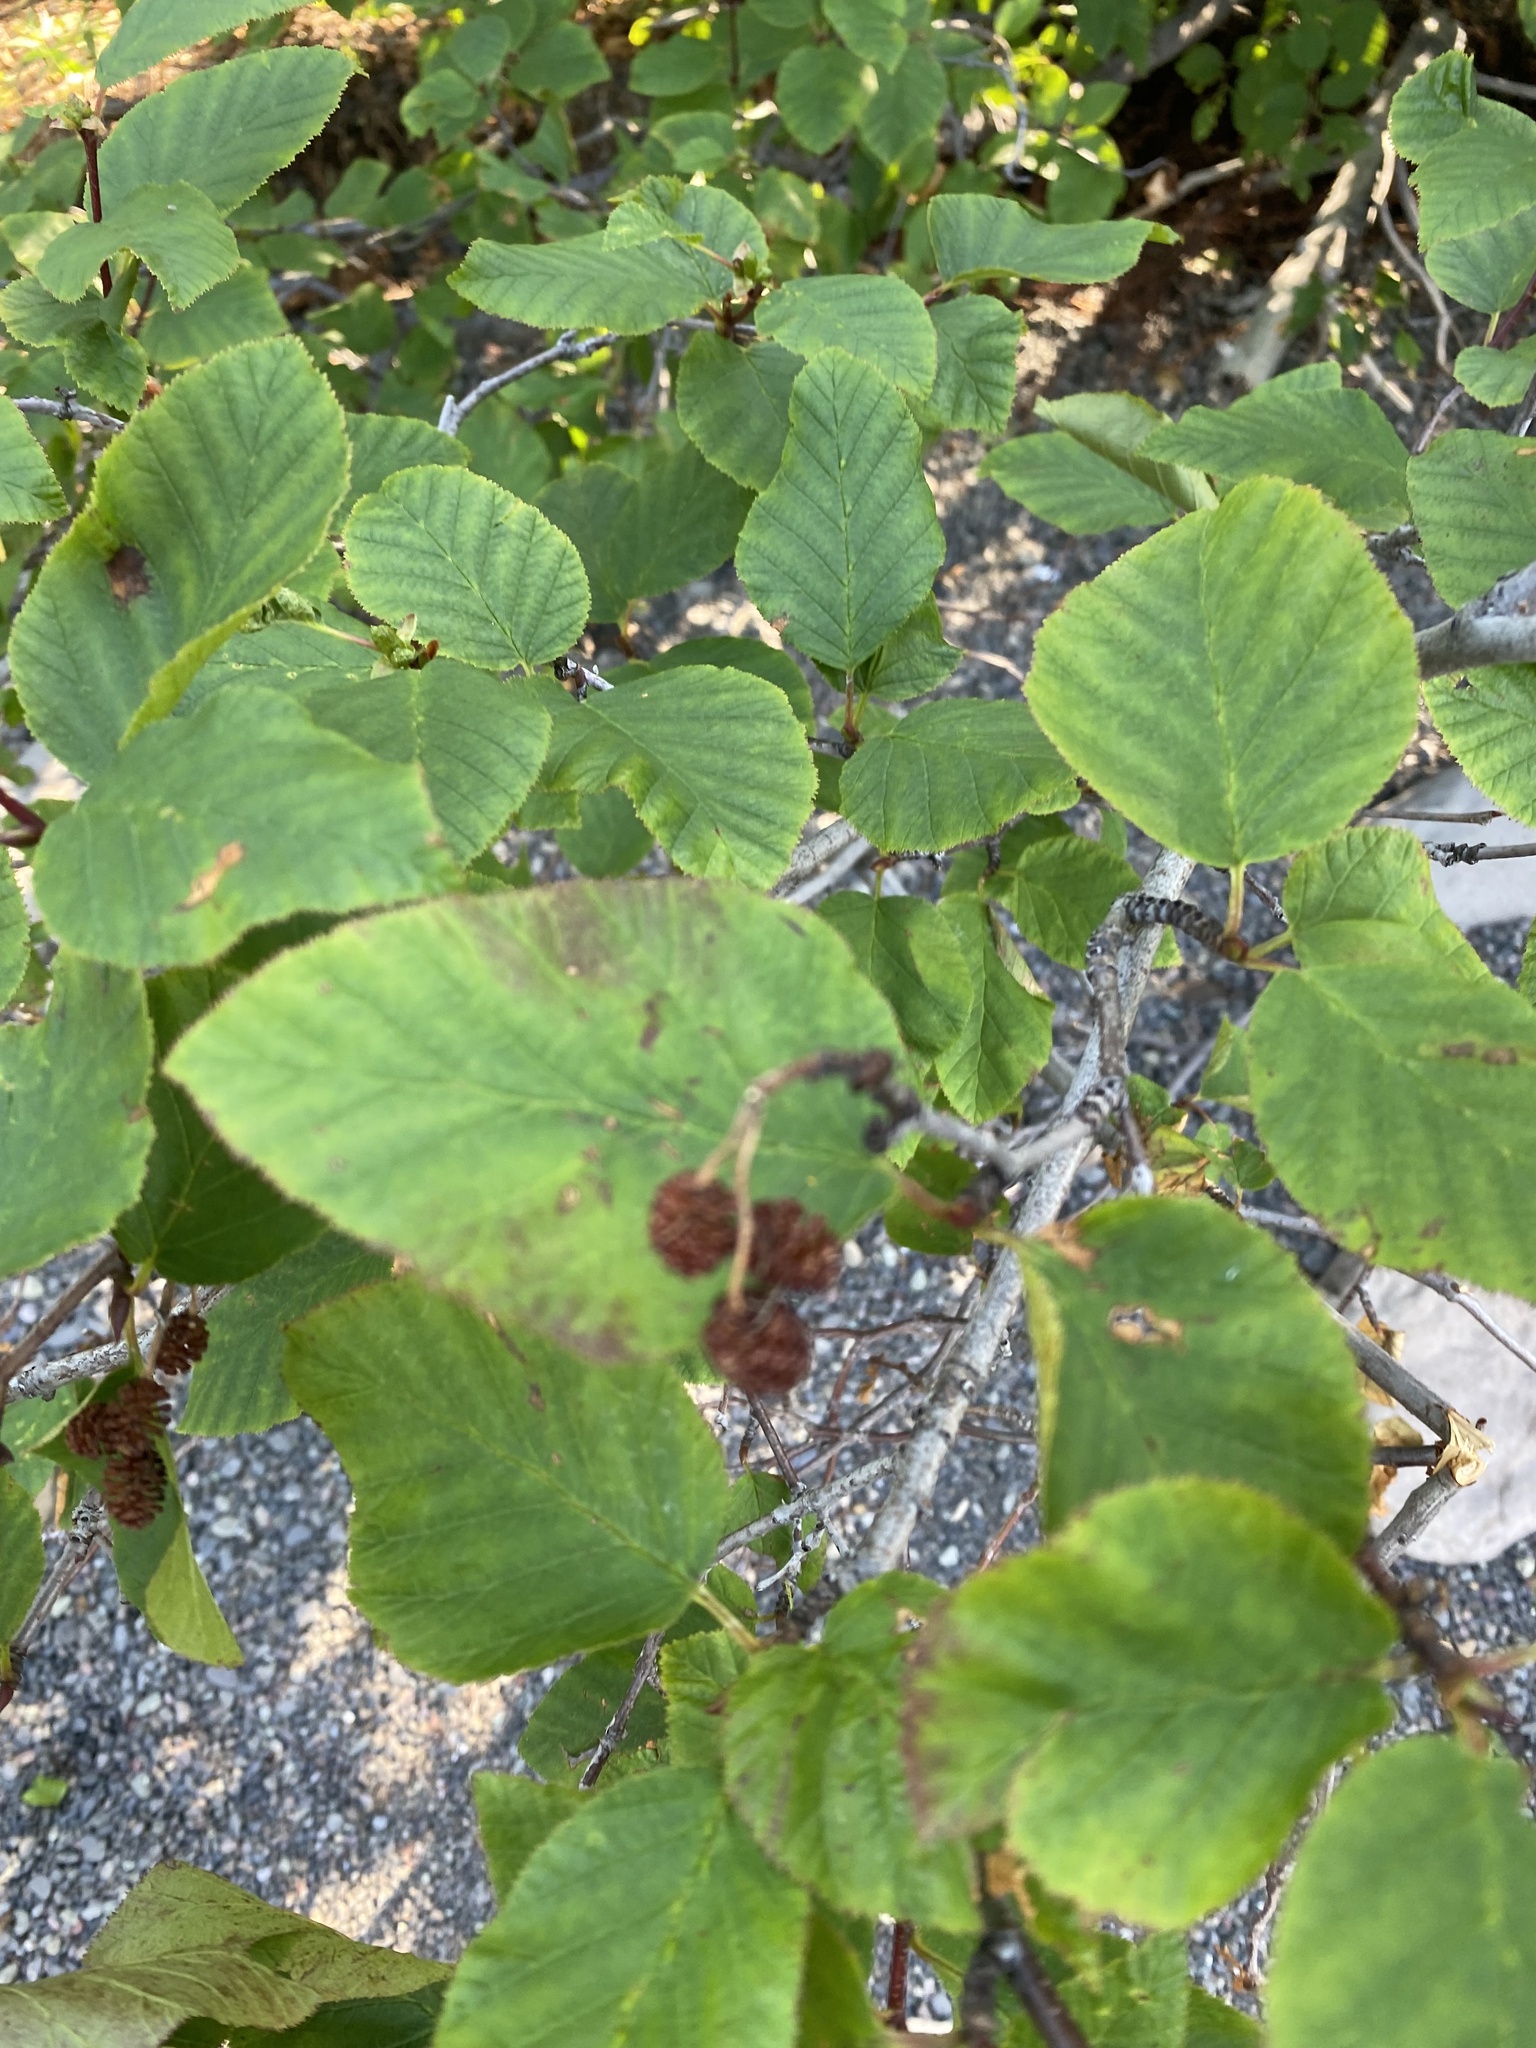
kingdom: Plantae
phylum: Tracheophyta
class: Magnoliopsida
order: Fagales
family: Betulaceae
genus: Alnus
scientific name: Alnus alnobetula
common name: Green alder
